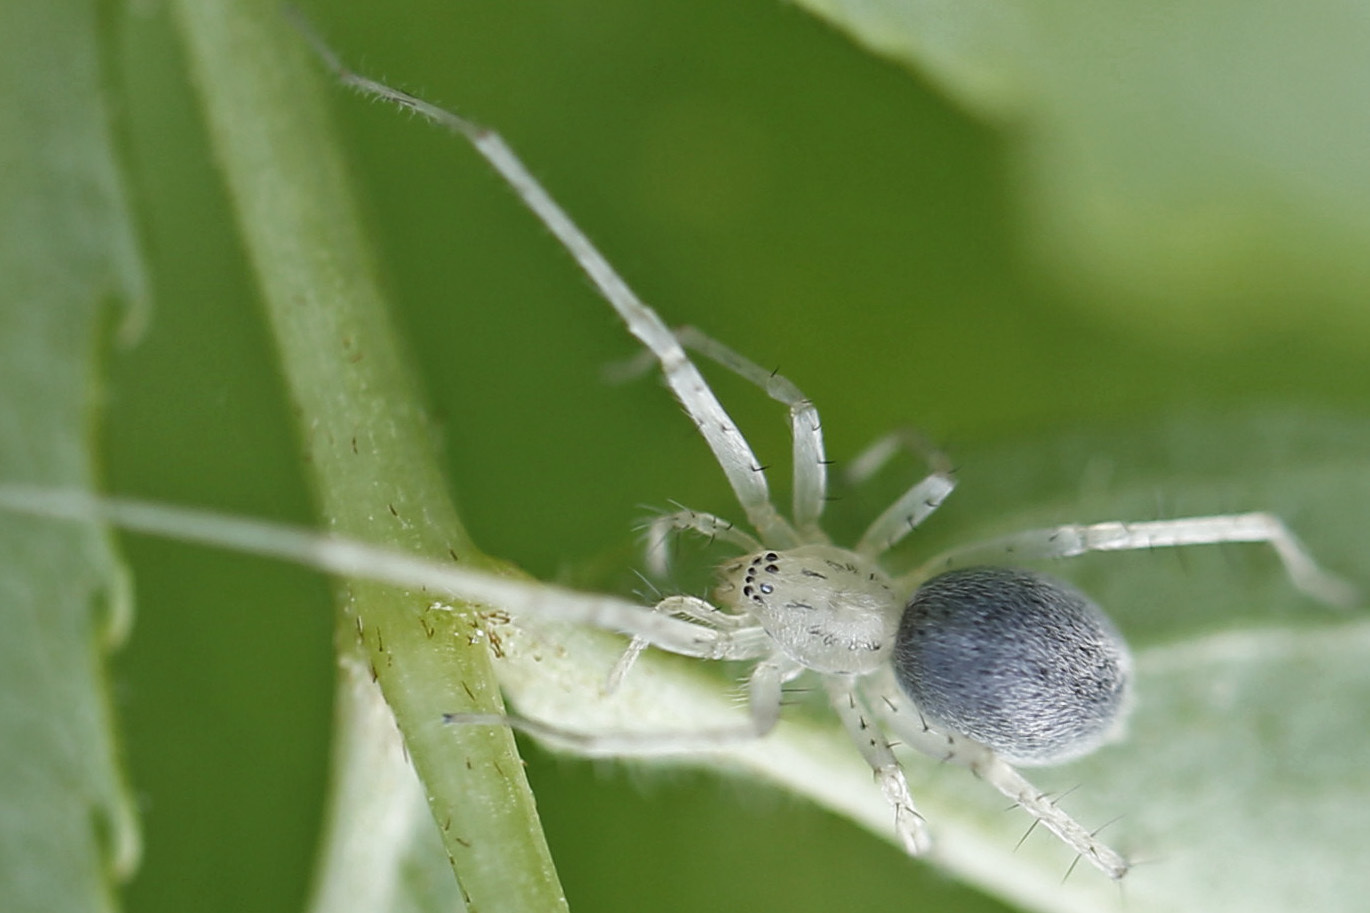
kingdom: Animalia
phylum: Arthropoda
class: Arachnida
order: Araneae
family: Anyphaenidae
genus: Wulfila
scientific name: Wulfila saltabundus
